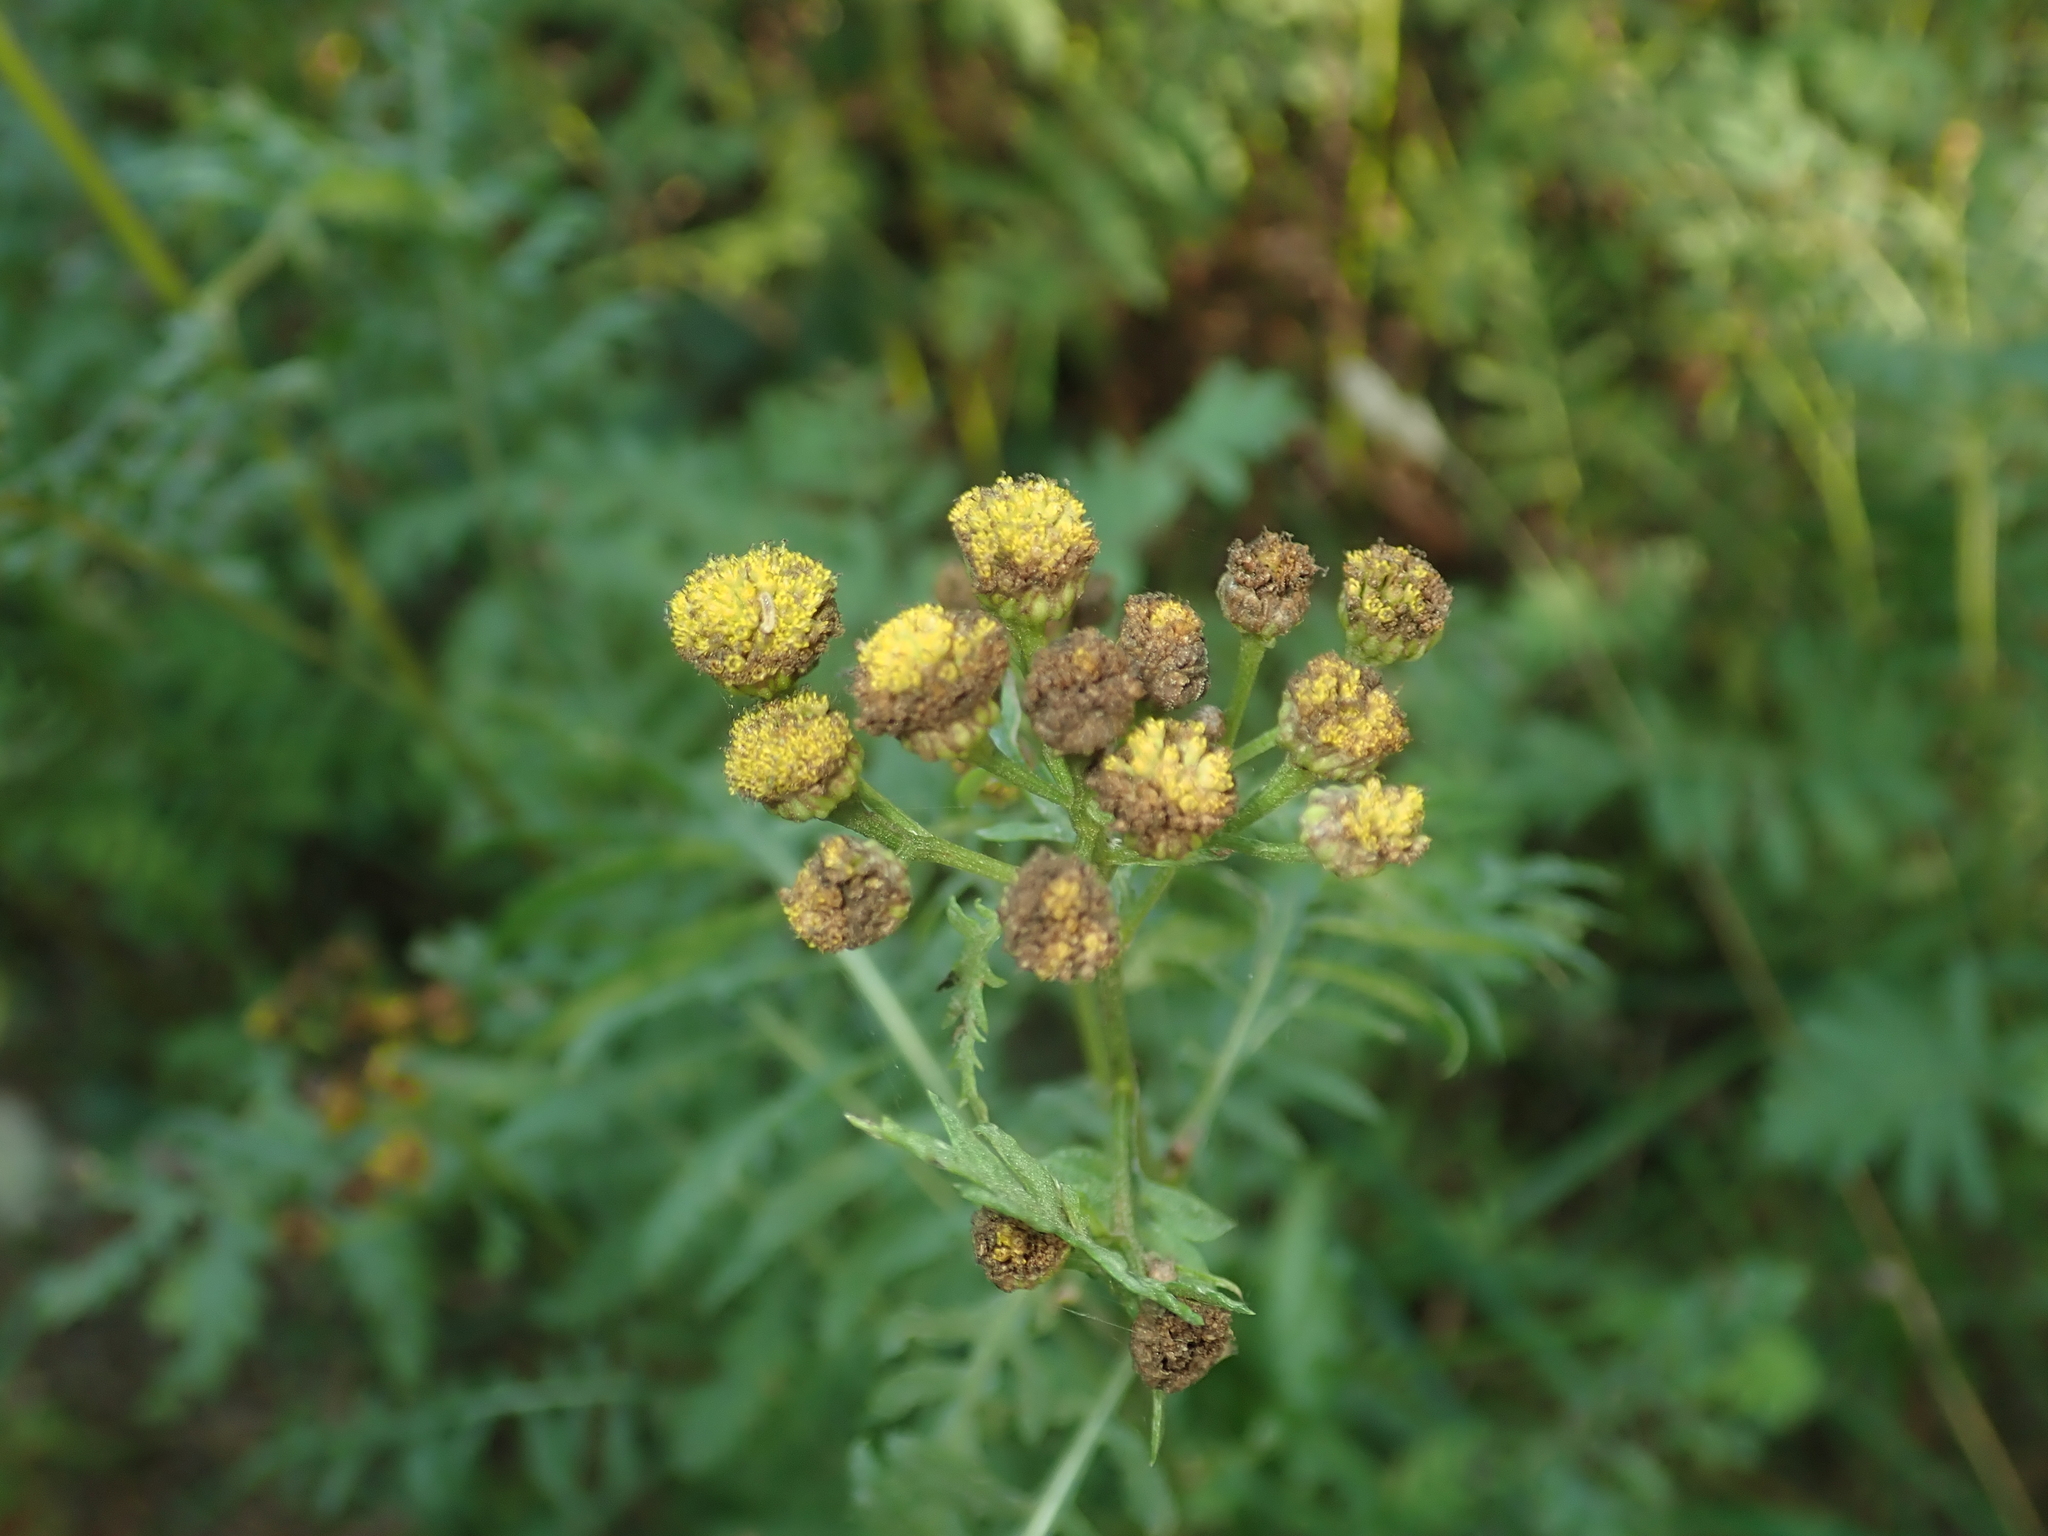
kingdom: Plantae
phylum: Tracheophyta
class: Magnoliopsida
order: Asterales
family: Asteraceae
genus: Tanacetum
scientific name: Tanacetum vulgare
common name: Common tansy
